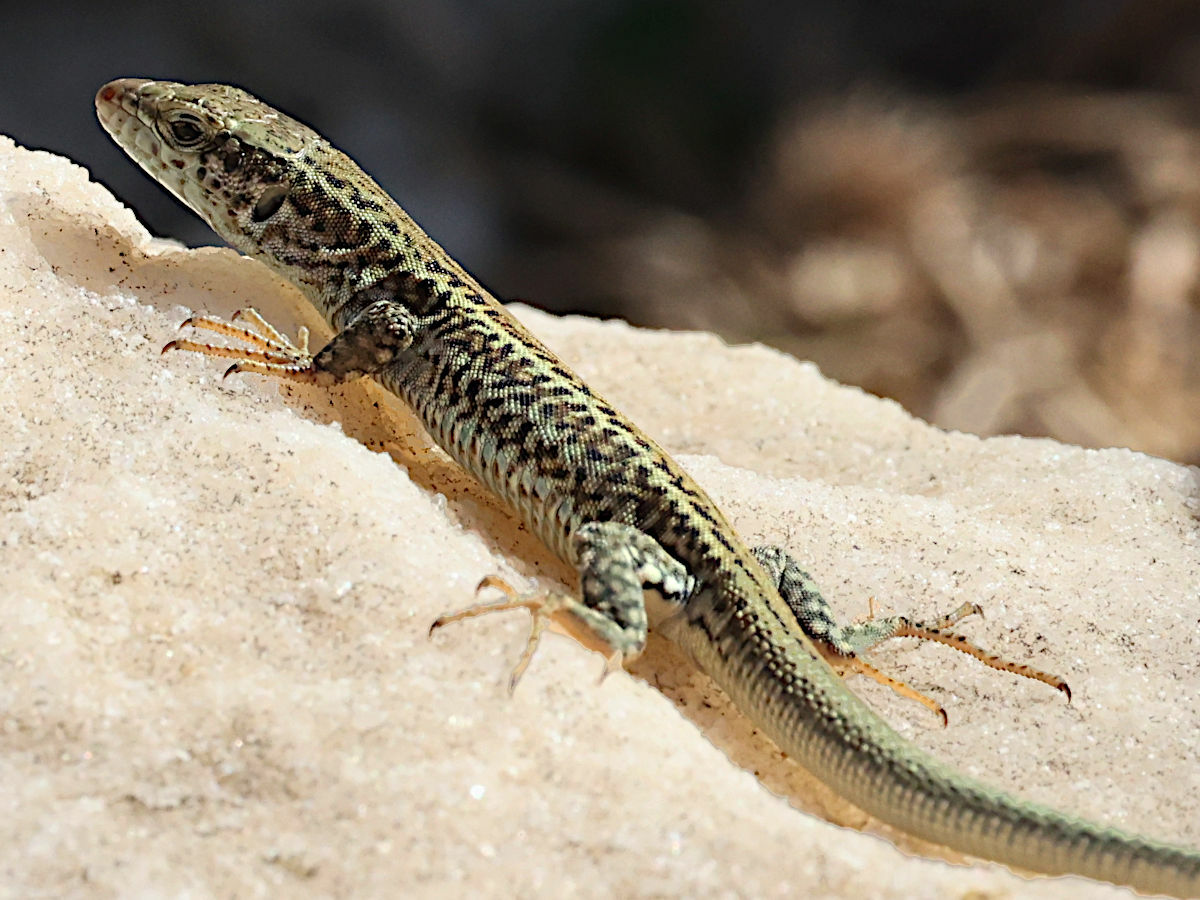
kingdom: Animalia
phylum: Chordata
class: Squamata
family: Lacertidae
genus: Podarcis
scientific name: Podarcis erhardii
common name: Erhard's wall lizard
